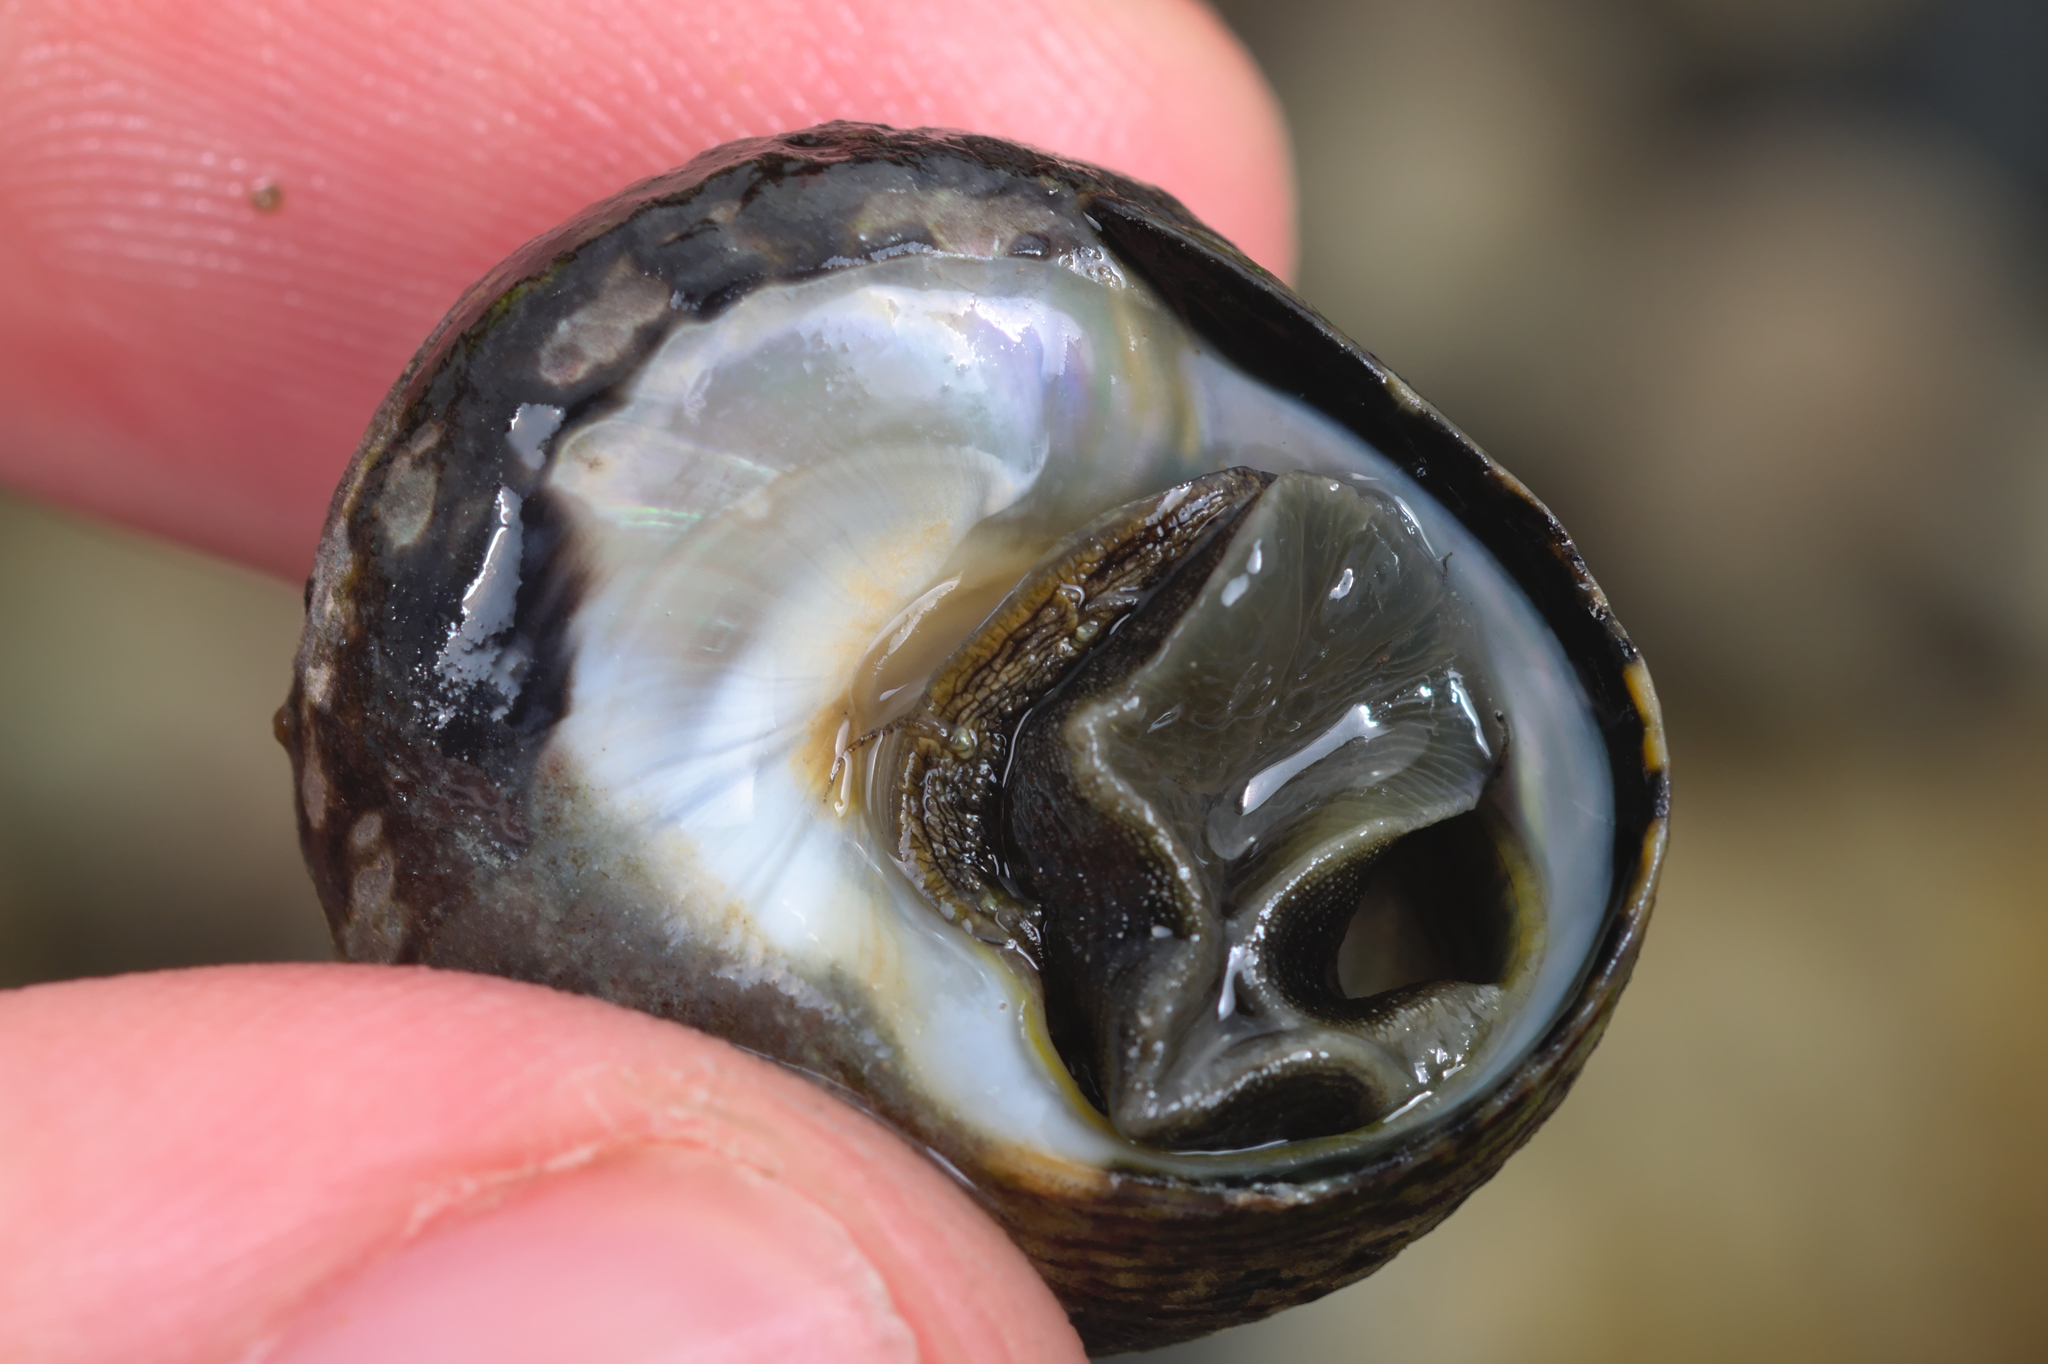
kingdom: Animalia
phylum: Mollusca
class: Gastropoda
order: Trochida
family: Trochidae
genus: Phorcus
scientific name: Phorcus lineatus
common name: Toothed top shell
